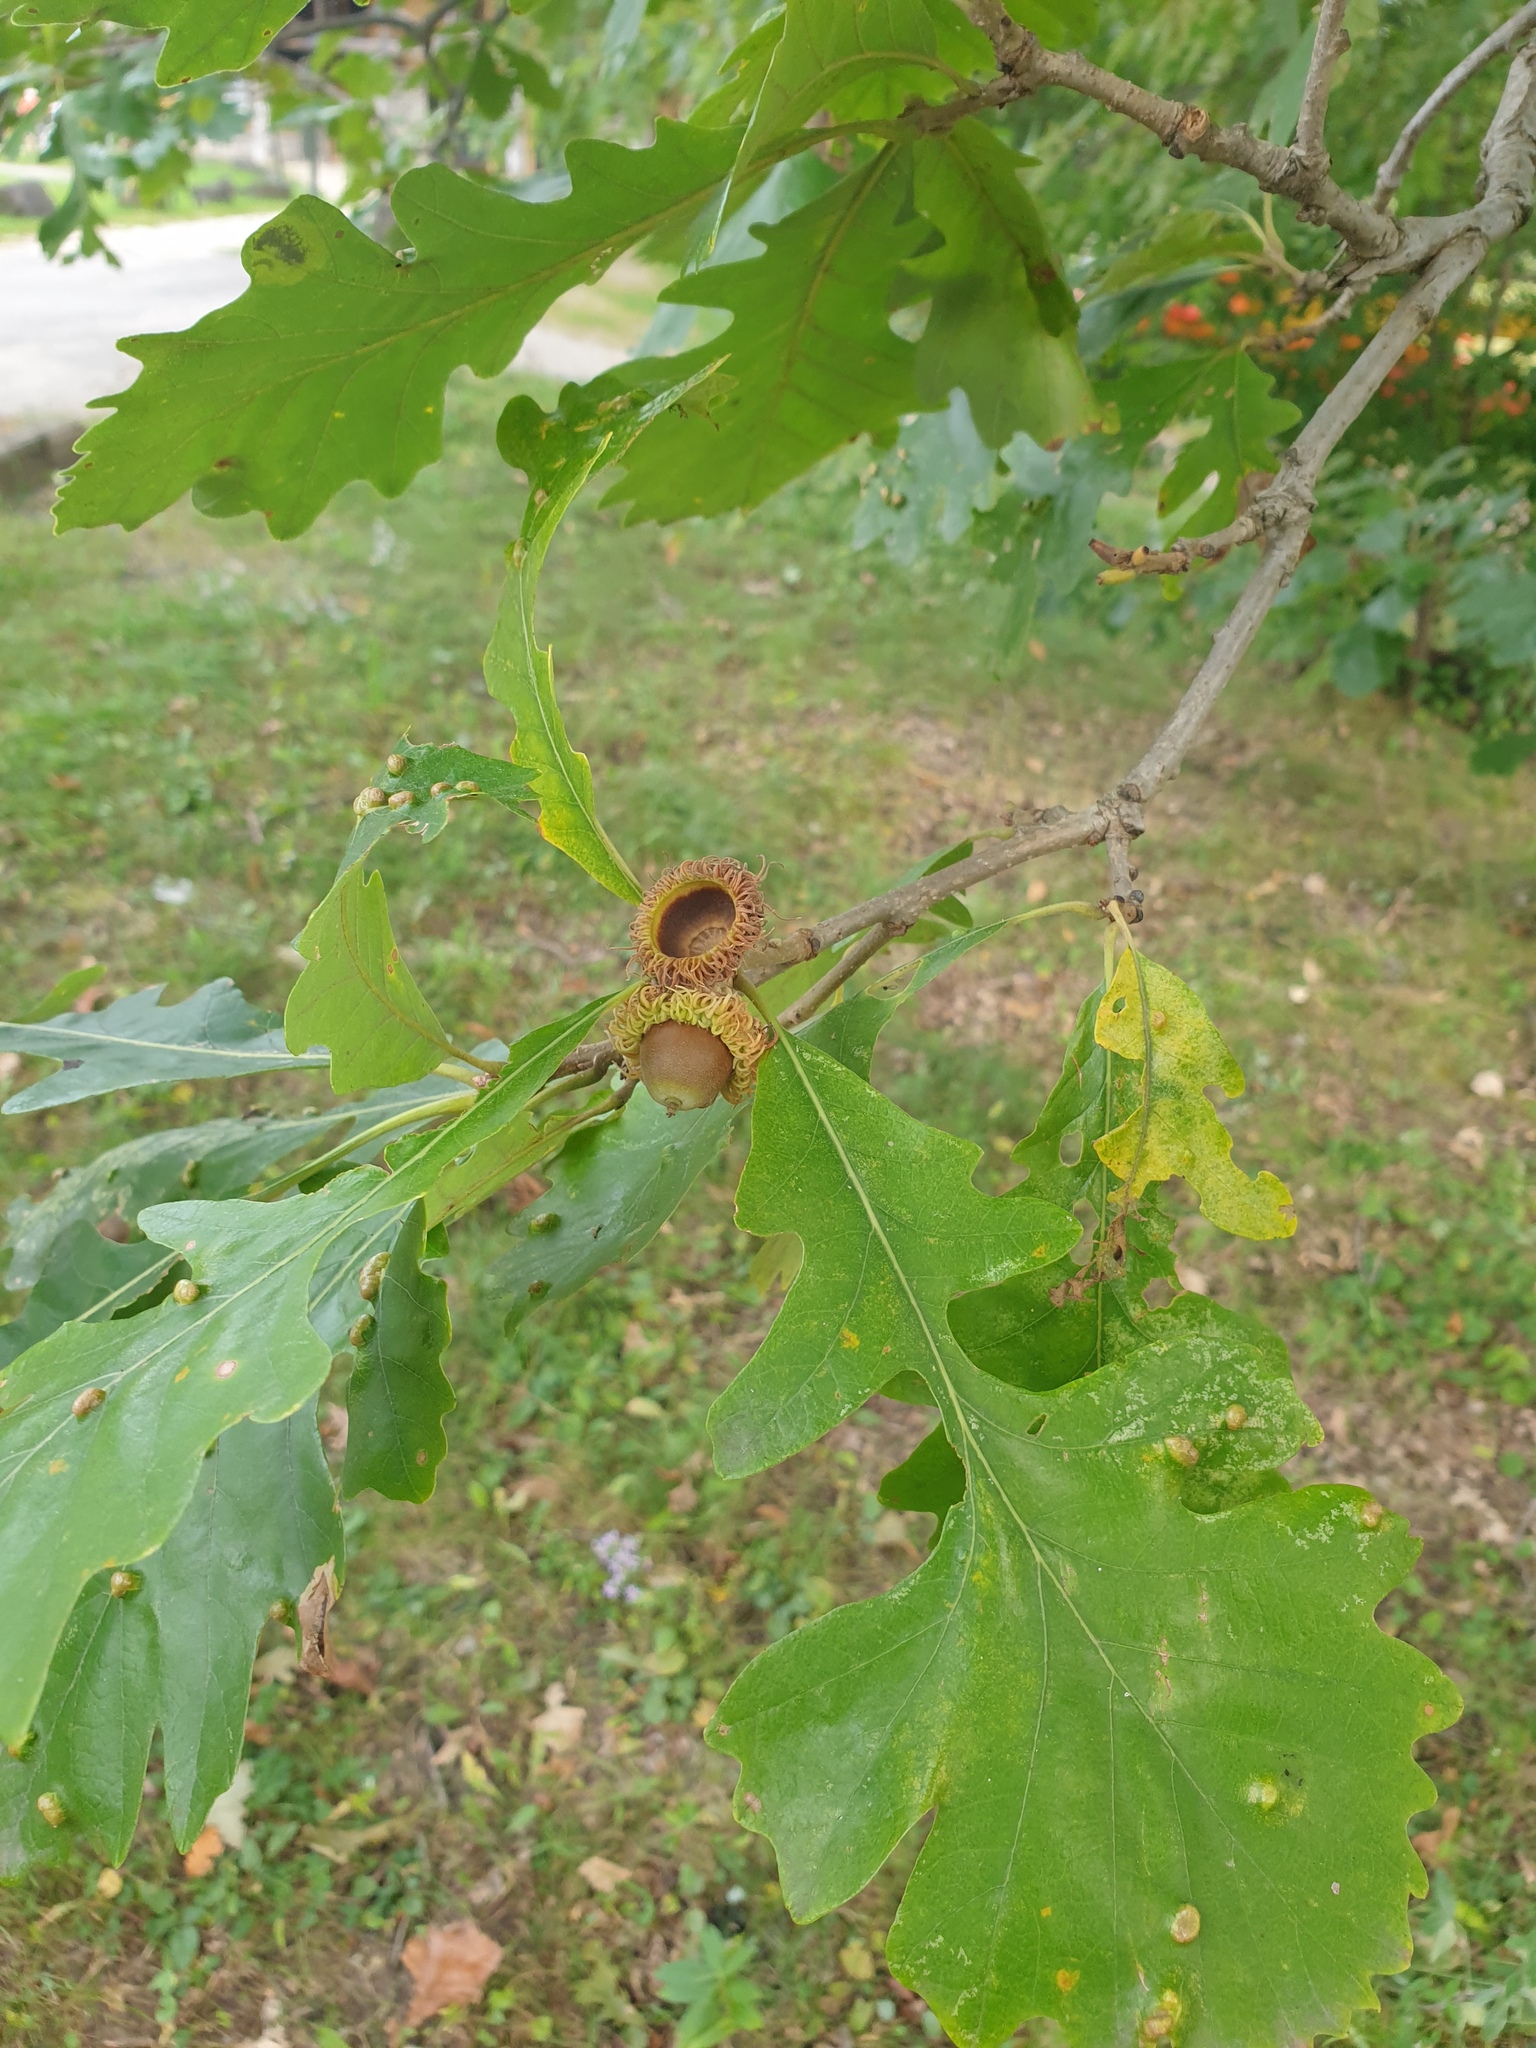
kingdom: Plantae
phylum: Tracheophyta
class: Magnoliopsida
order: Fagales
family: Fagaceae
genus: Quercus
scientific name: Quercus macrocarpa
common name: Bur oak
